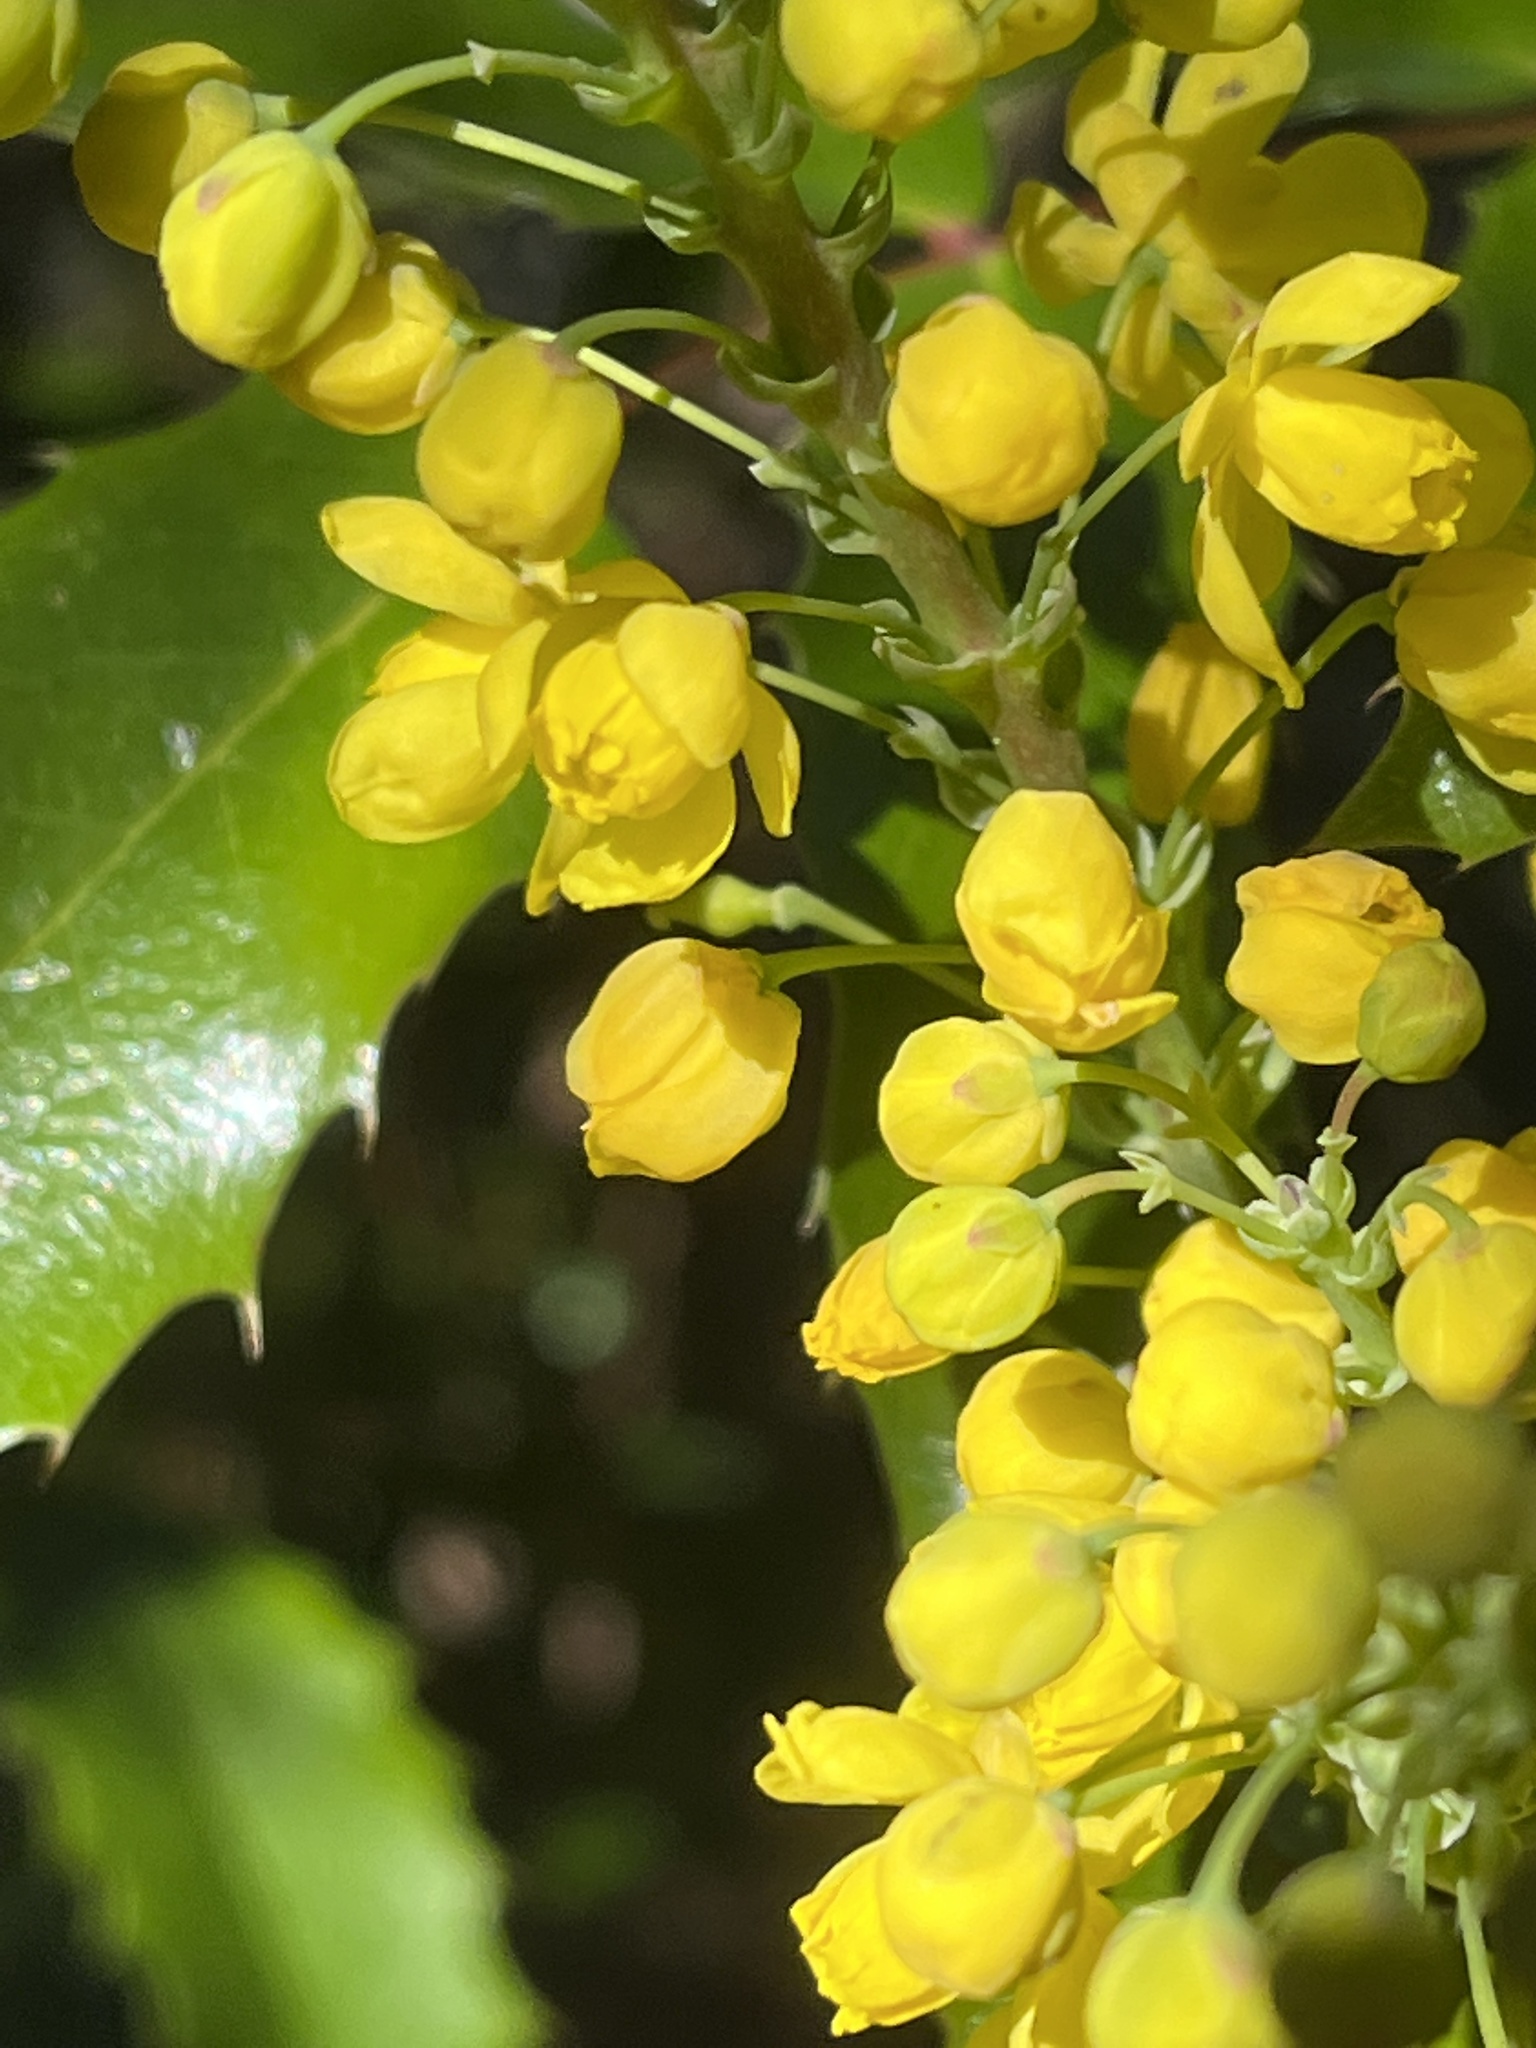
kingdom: Plantae
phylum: Tracheophyta
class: Magnoliopsida
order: Ranunculales
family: Berberidaceae
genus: Mahonia
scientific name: Mahonia aquifolium
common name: Oregon-grape
